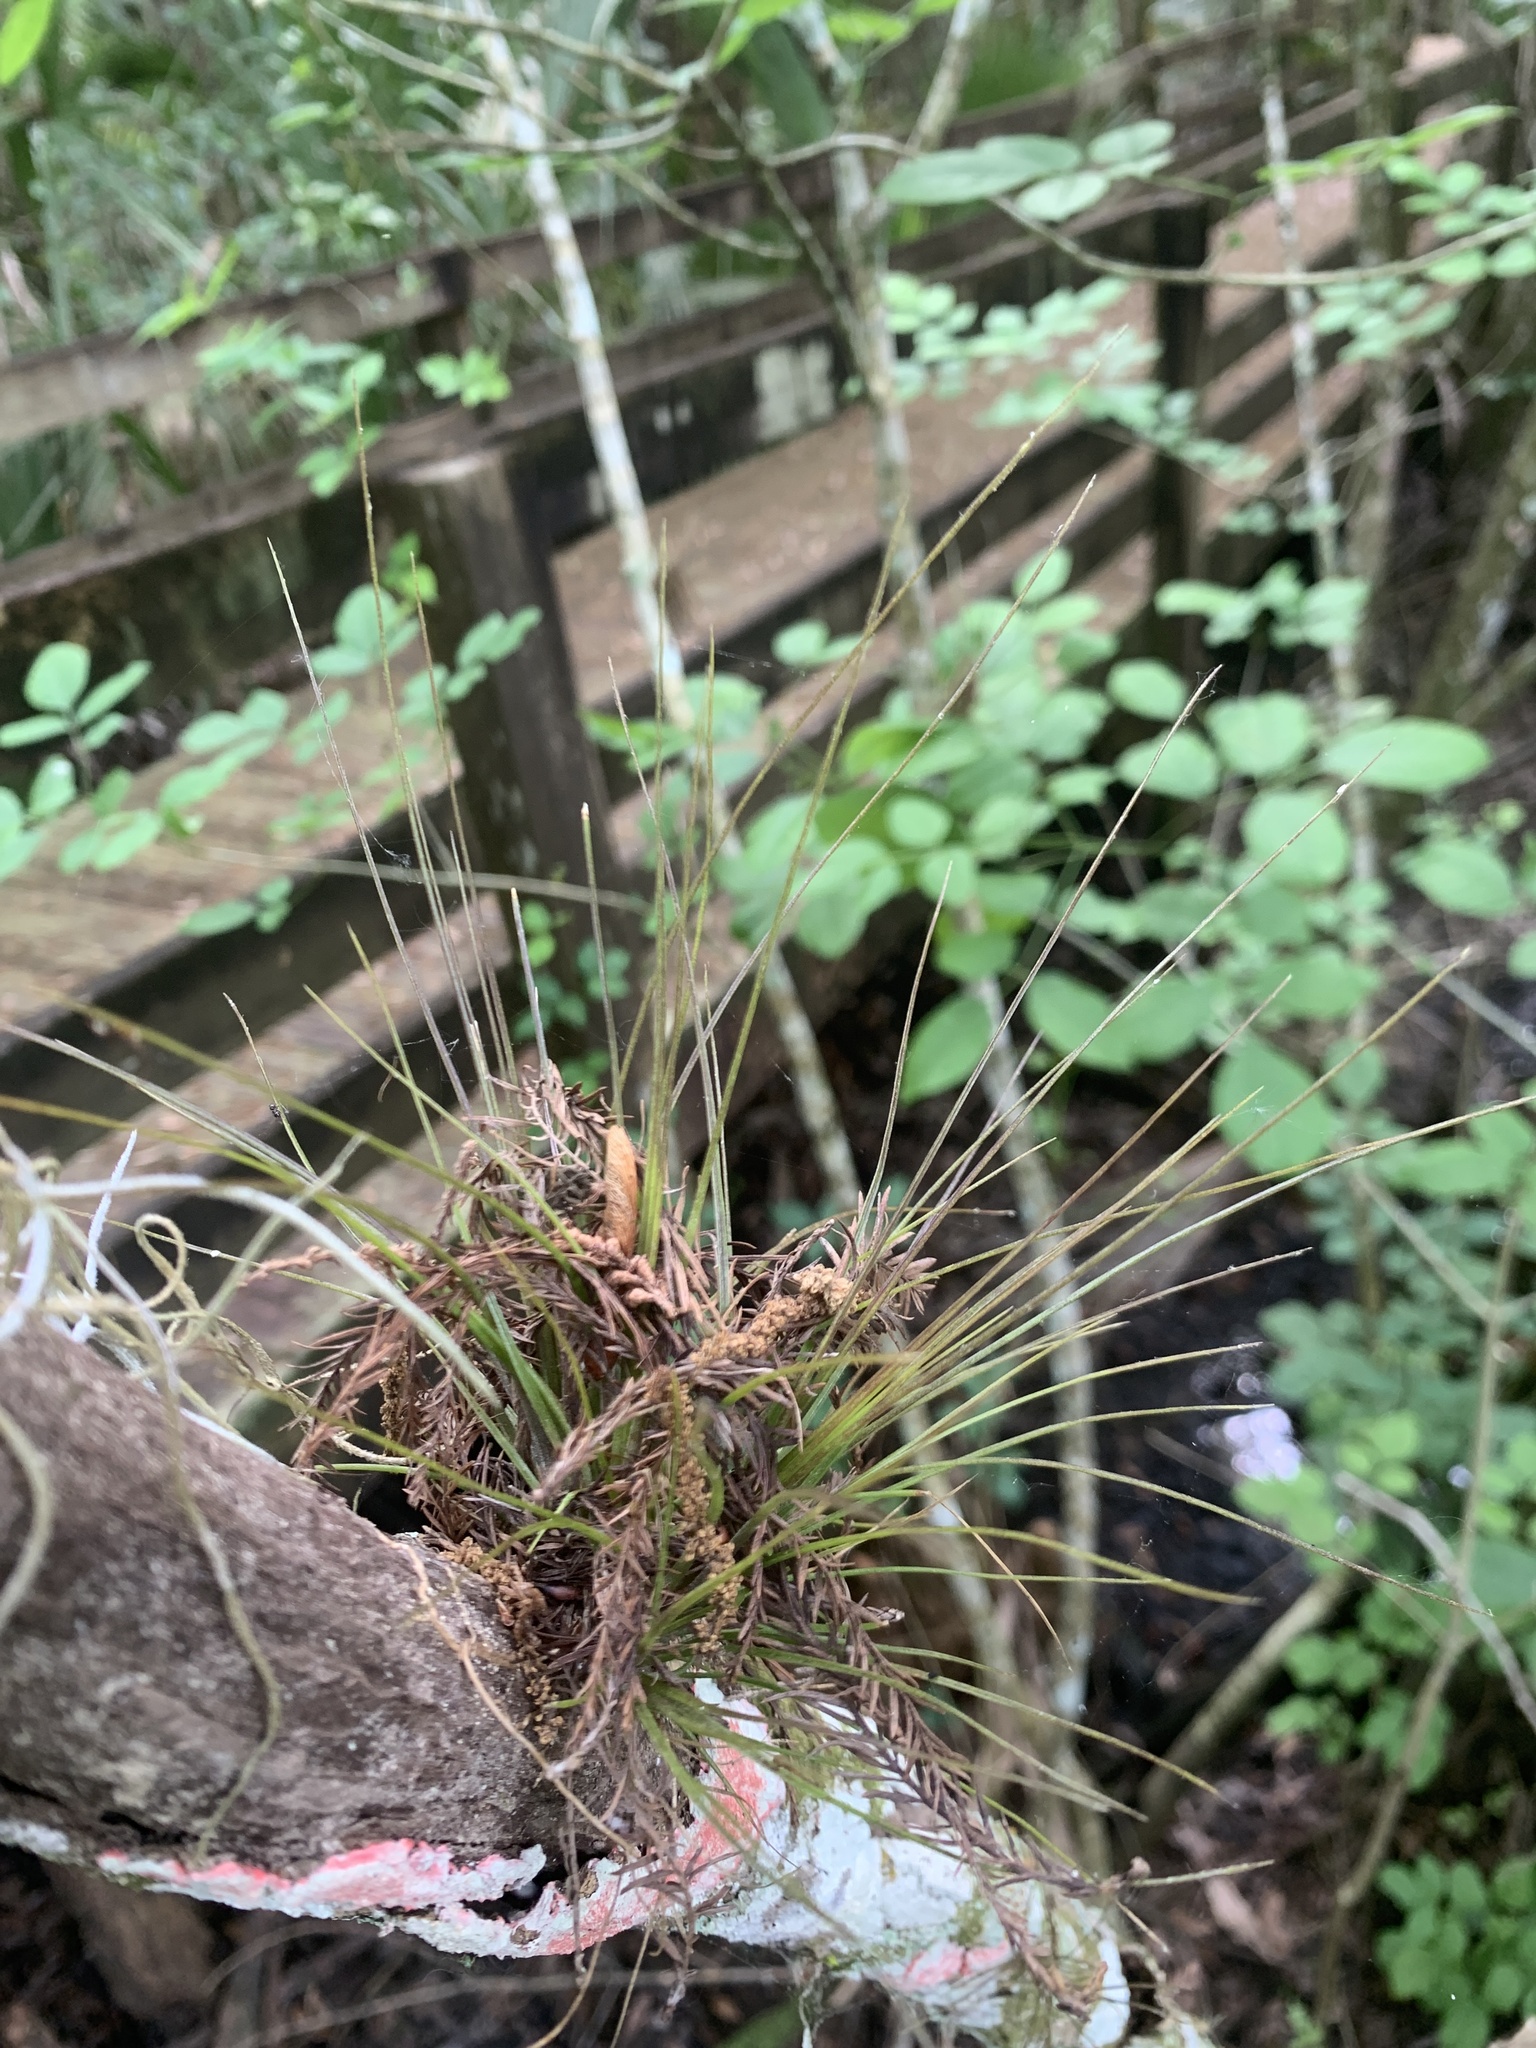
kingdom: Plantae
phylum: Tracheophyta
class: Liliopsida
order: Poales
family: Bromeliaceae
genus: Tillandsia
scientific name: Tillandsia setacea
